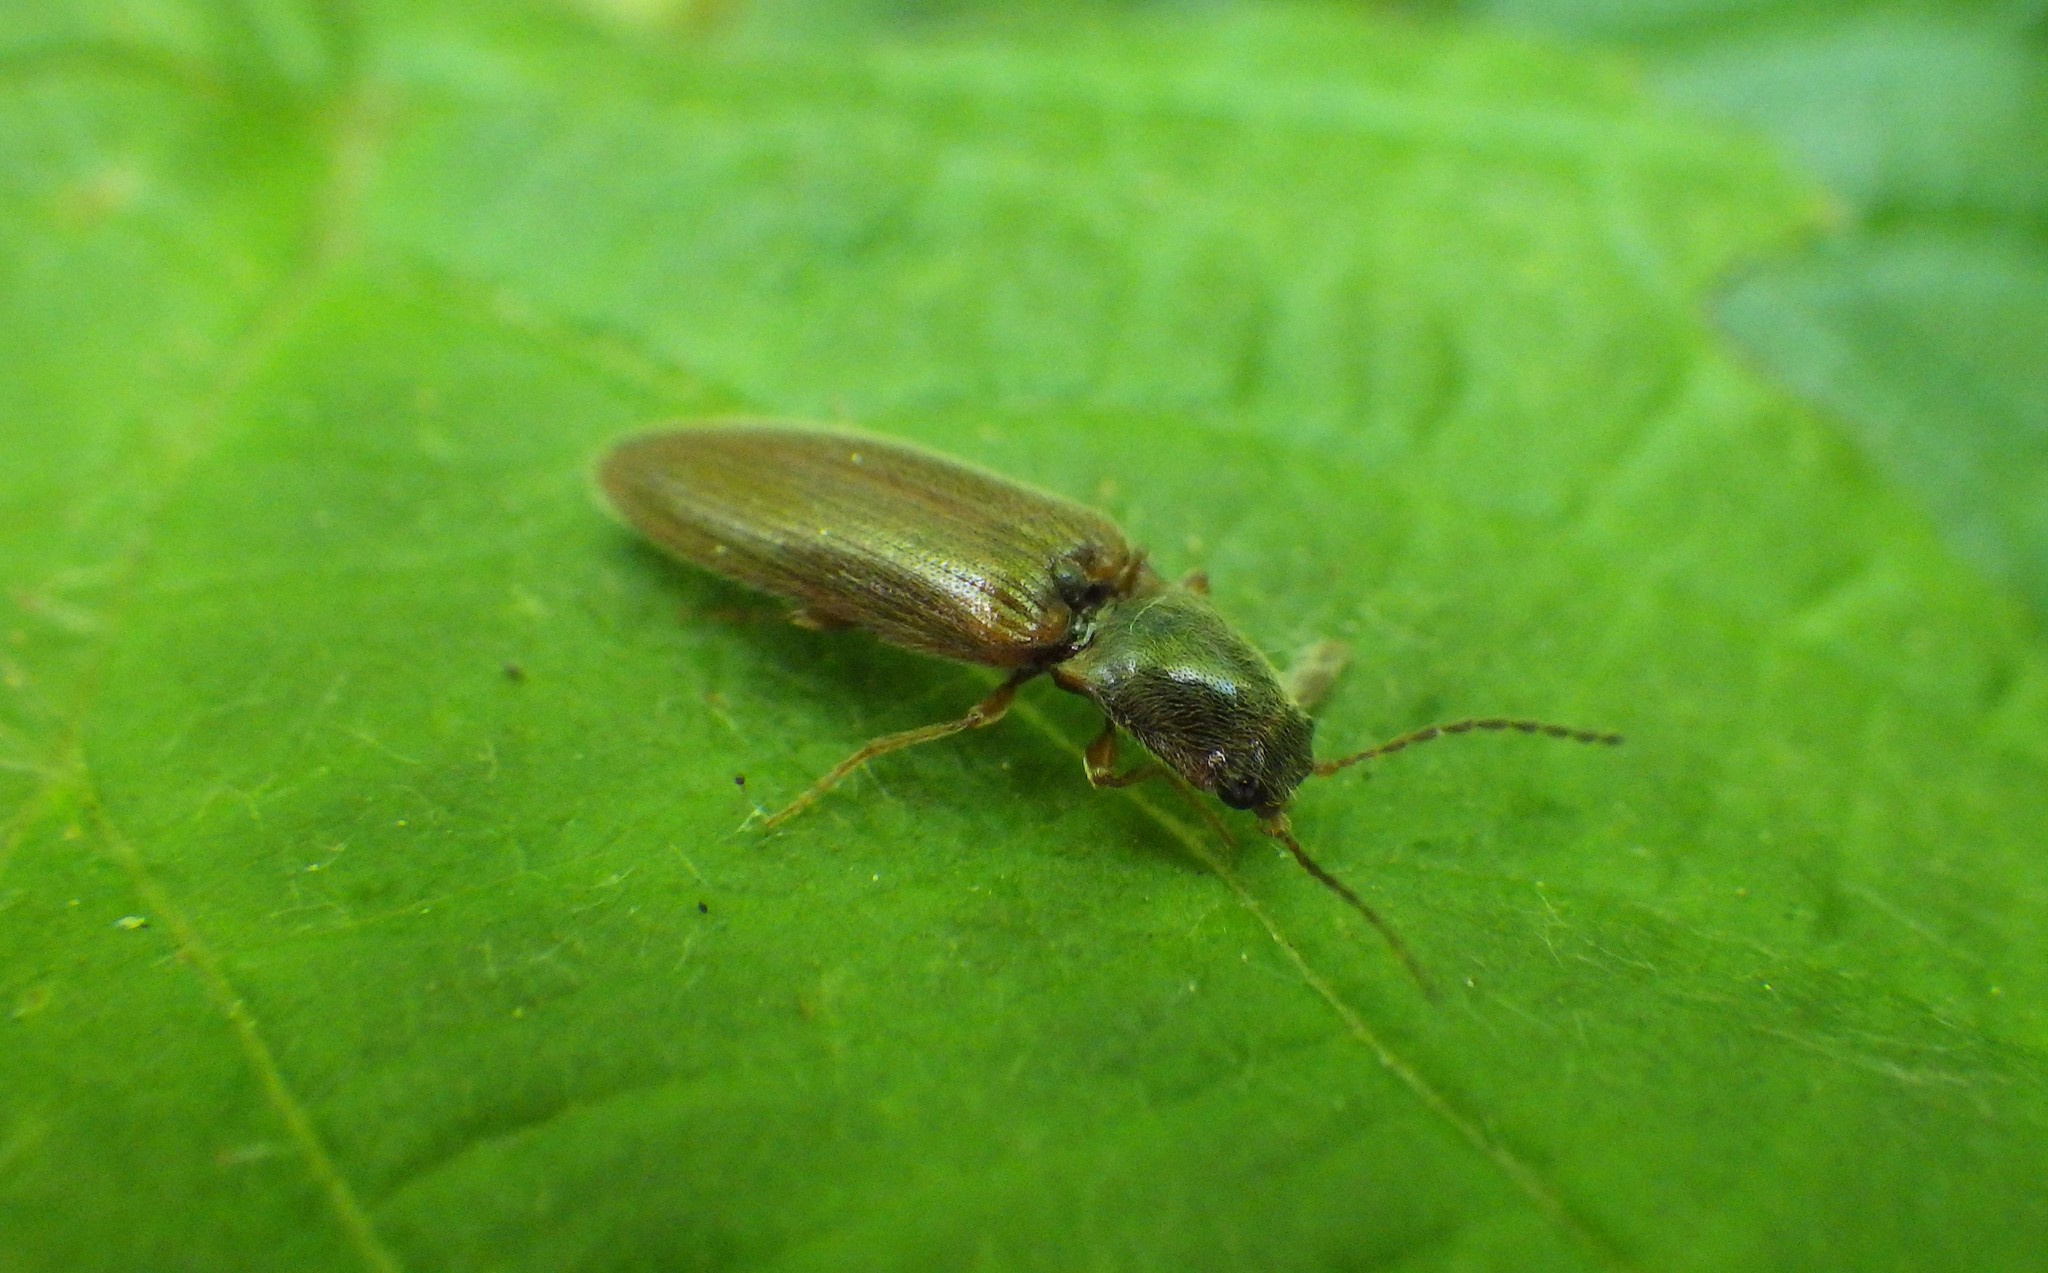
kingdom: Animalia
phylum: Arthropoda
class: Insecta
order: Coleoptera
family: Elateridae
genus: Athous
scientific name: Athous subfuscus
